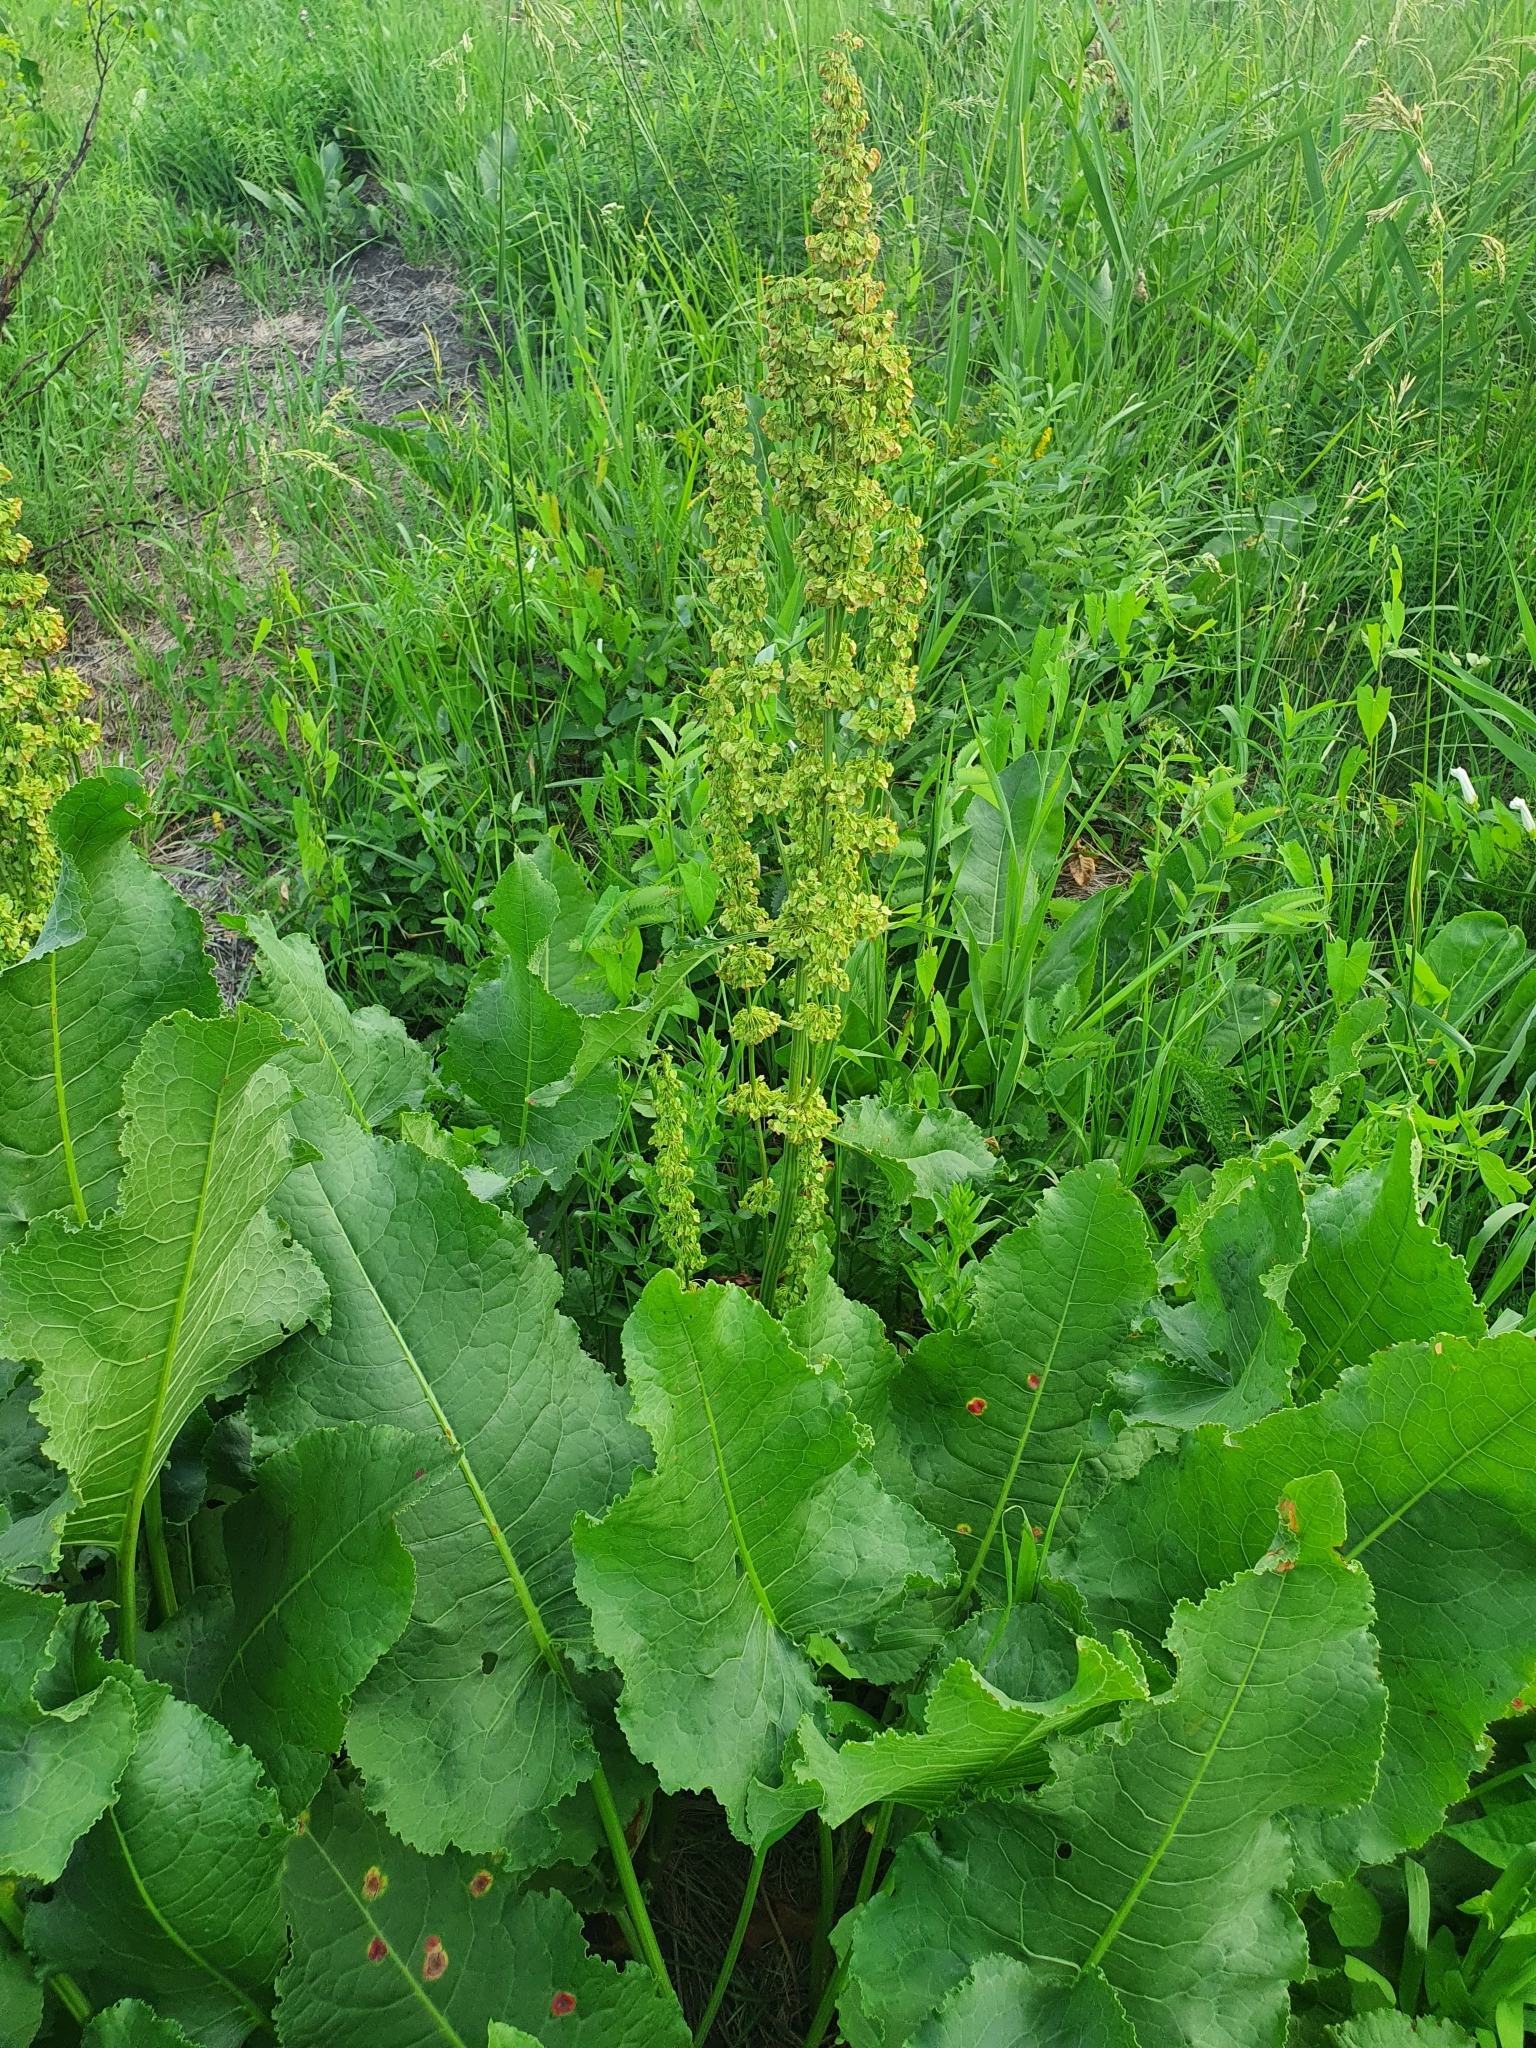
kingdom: Plantae
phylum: Tracheophyta
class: Magnoliopsida
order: Caryophyllales
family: Polygonaceae
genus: Rumex
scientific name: Rumex confertus
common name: Russian dock
